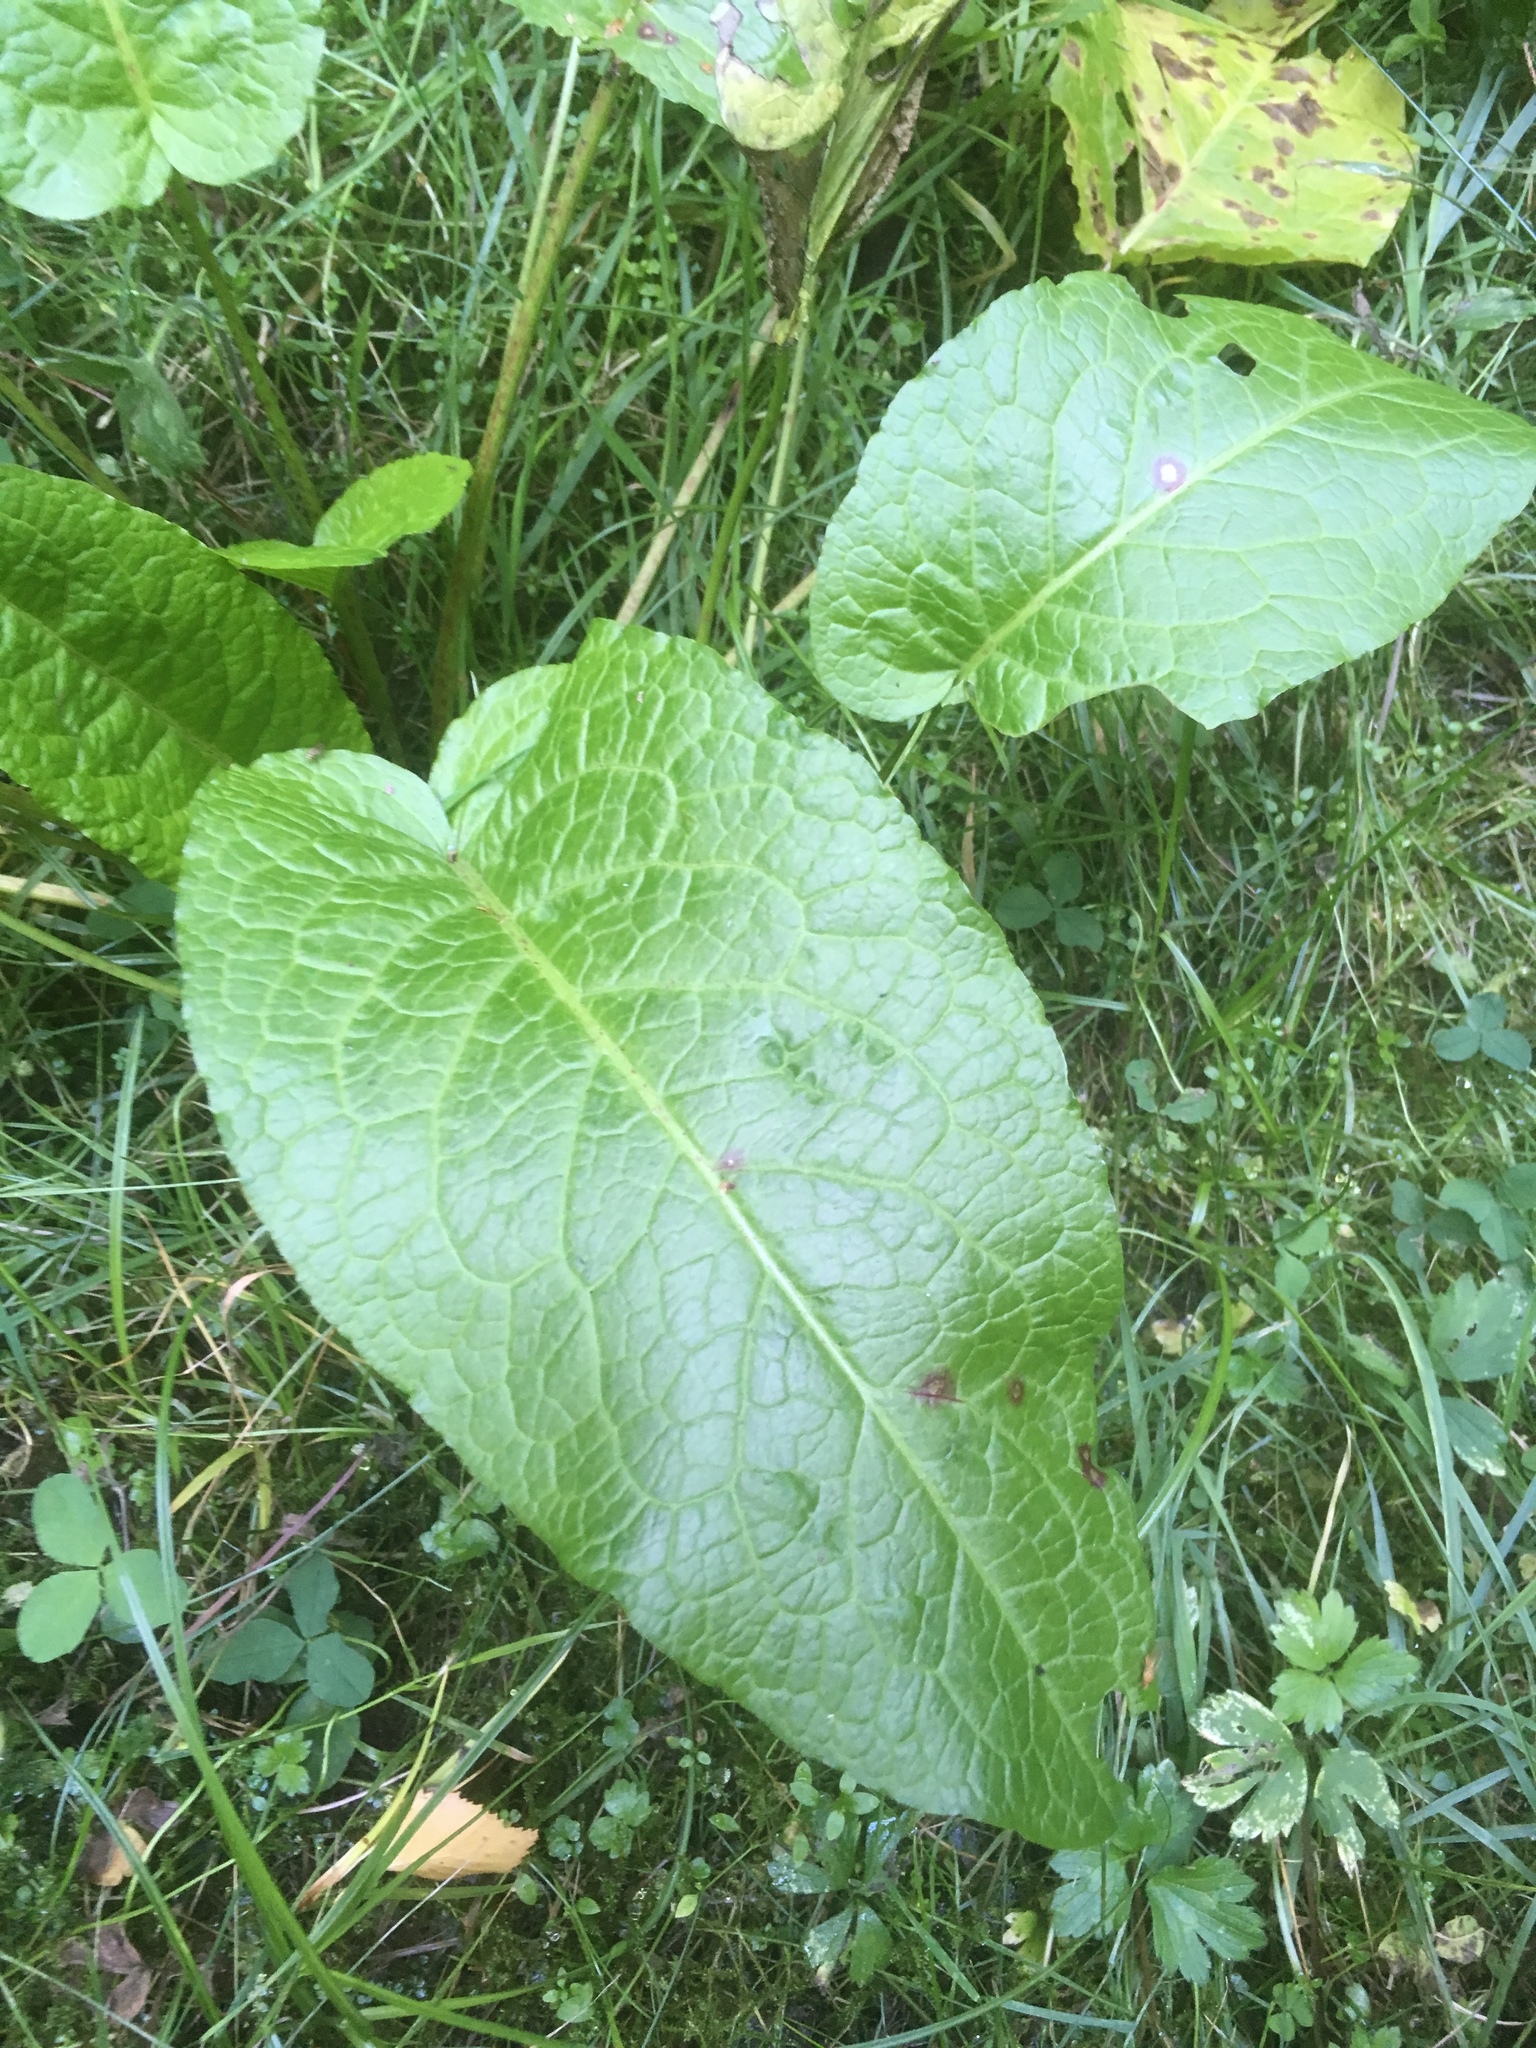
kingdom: Plantae
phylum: Tracheophyta
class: Magnoliopsida
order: Caryophyllales
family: Polygonaceae
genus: Rumex
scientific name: Rumex obtusifolius
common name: Bitter dock
